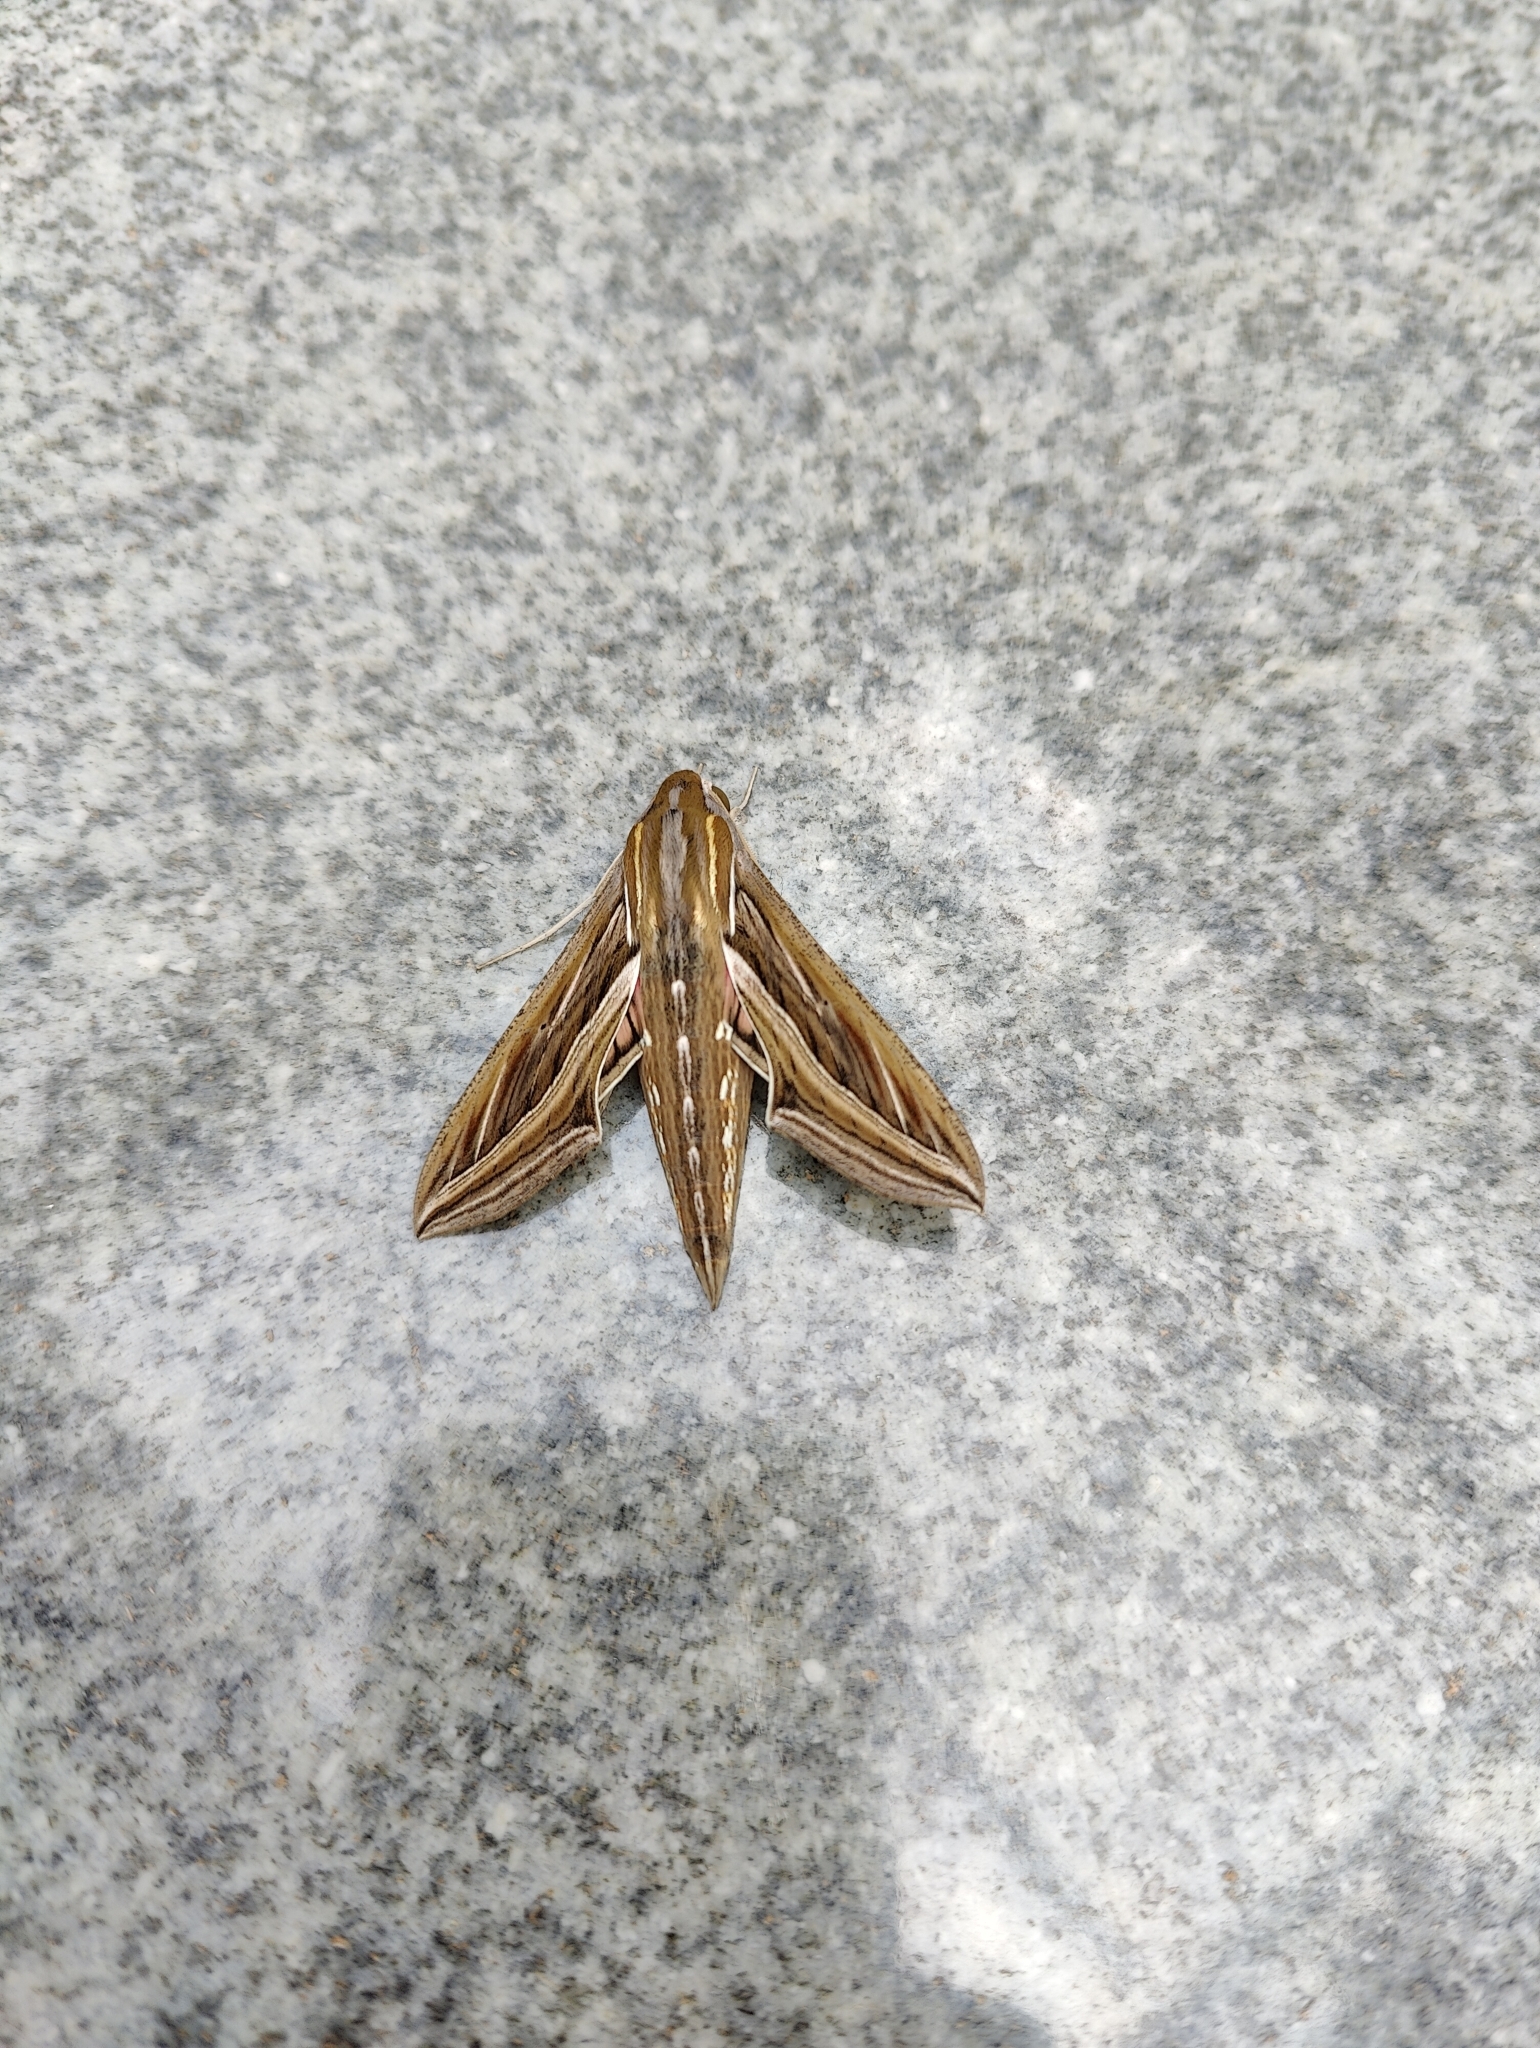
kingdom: Animalia
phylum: Arthropoda
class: Insecta
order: Lepidoptera
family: Sphingidae
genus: Hippotion
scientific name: Hippotion celerio
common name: Silver-striped hawk-moth
